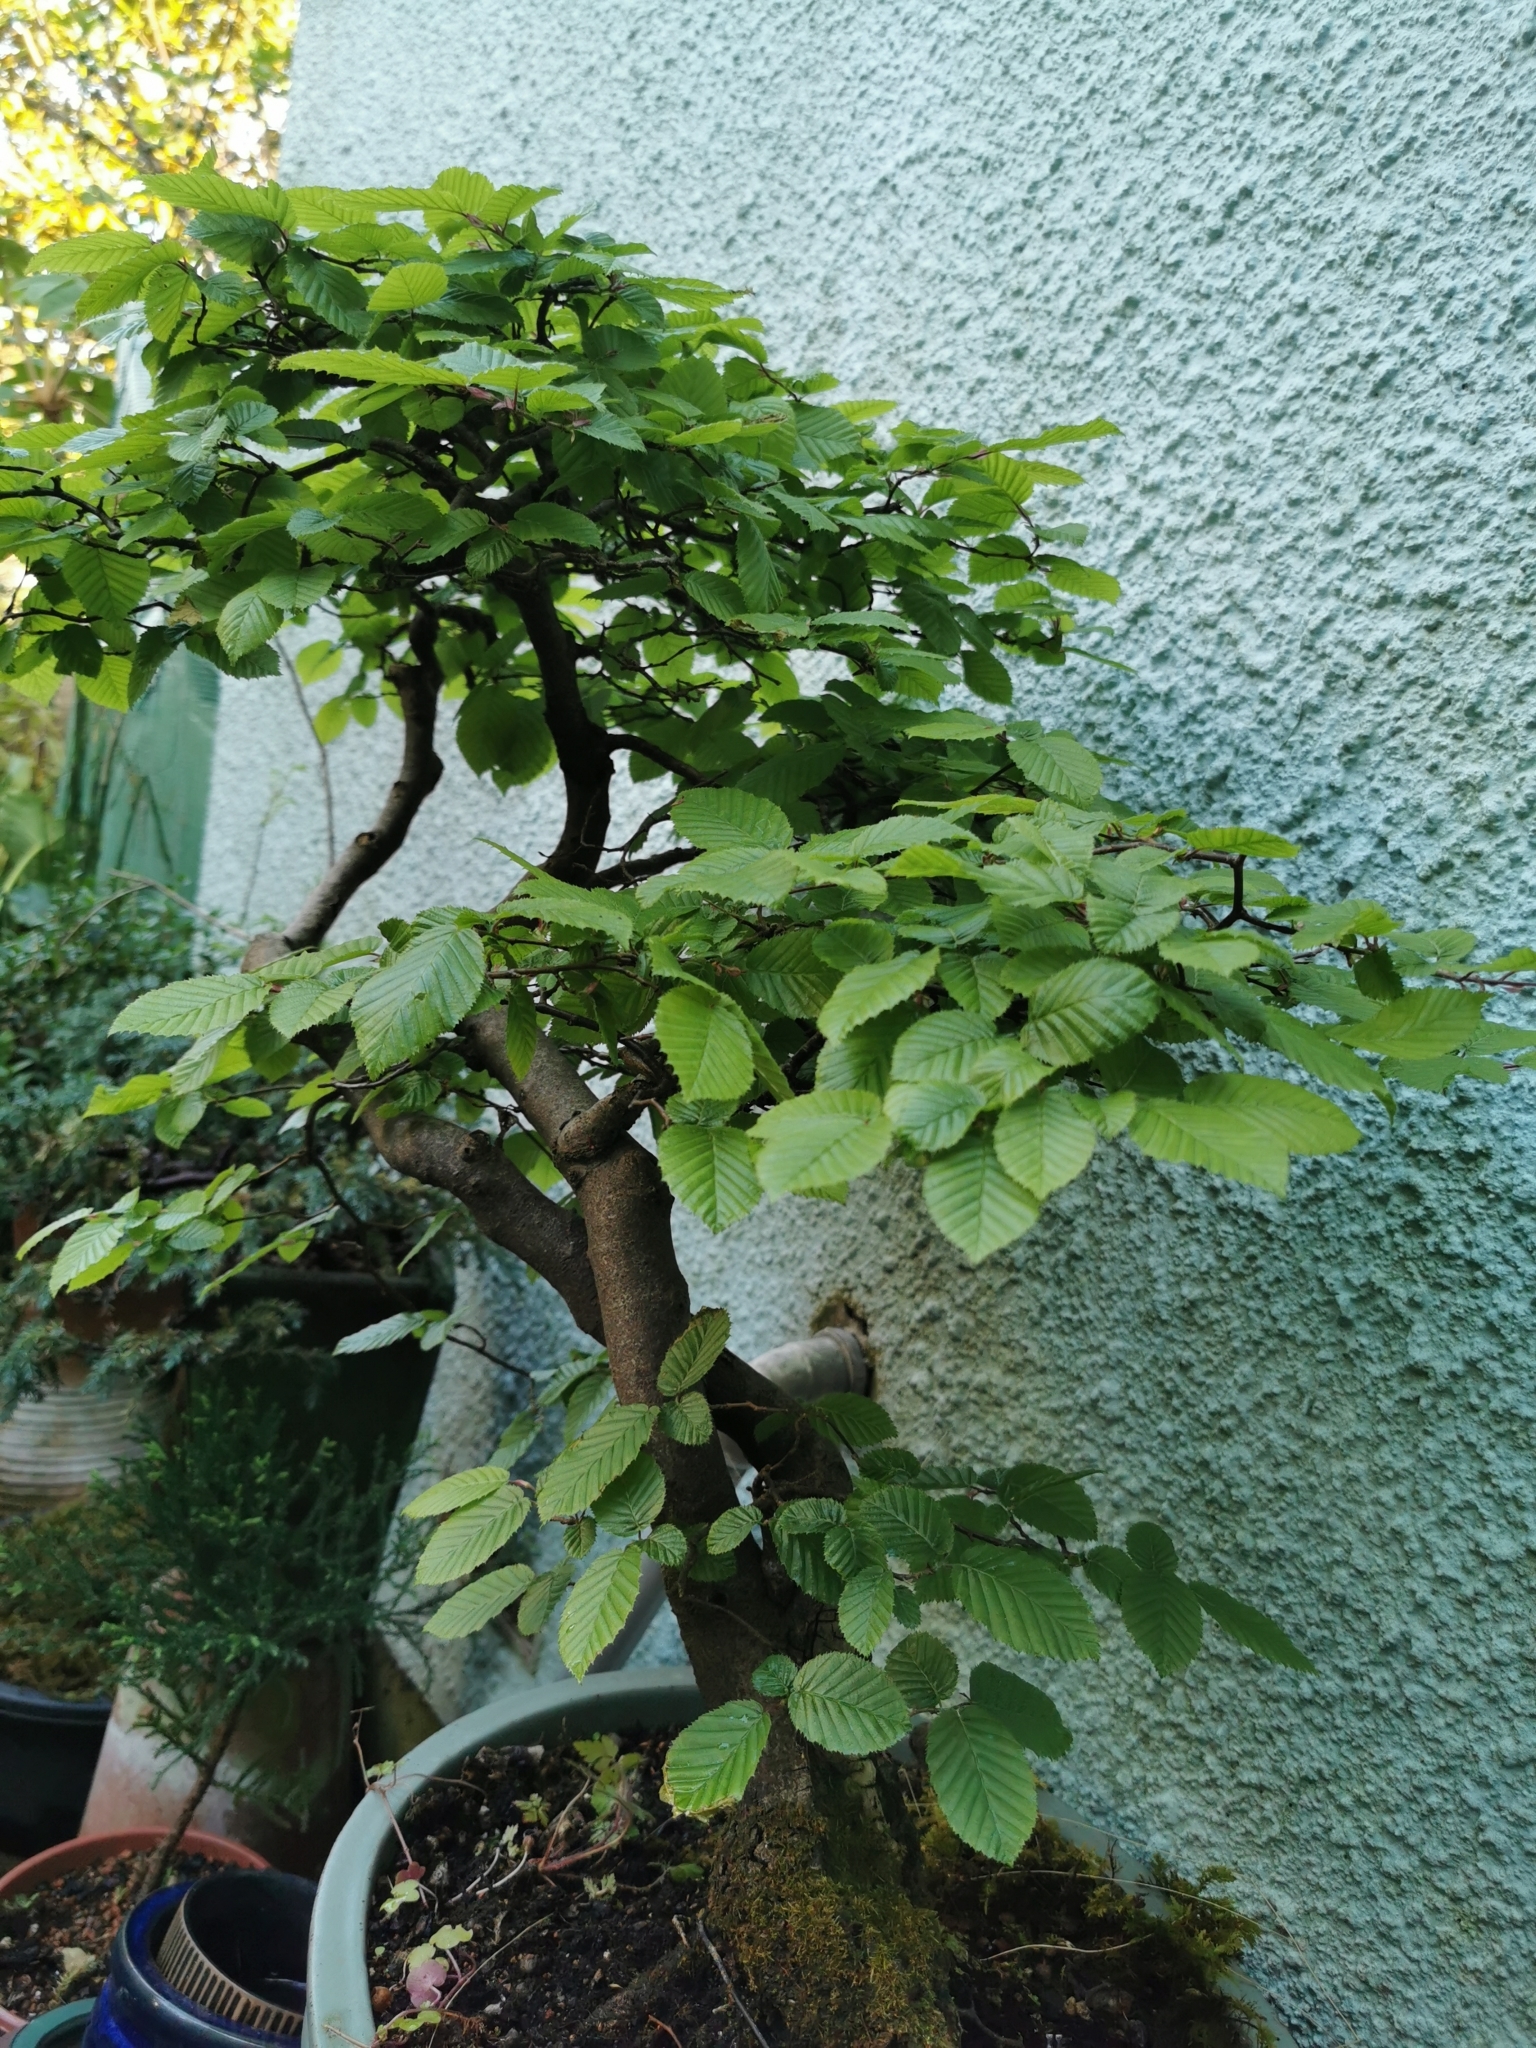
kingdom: Plantae
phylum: Tracheophyta
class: Magnoliopsida
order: Fagales
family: Betulaceae
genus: Carpinus
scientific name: Carpinus betulus
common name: Hornbeam
